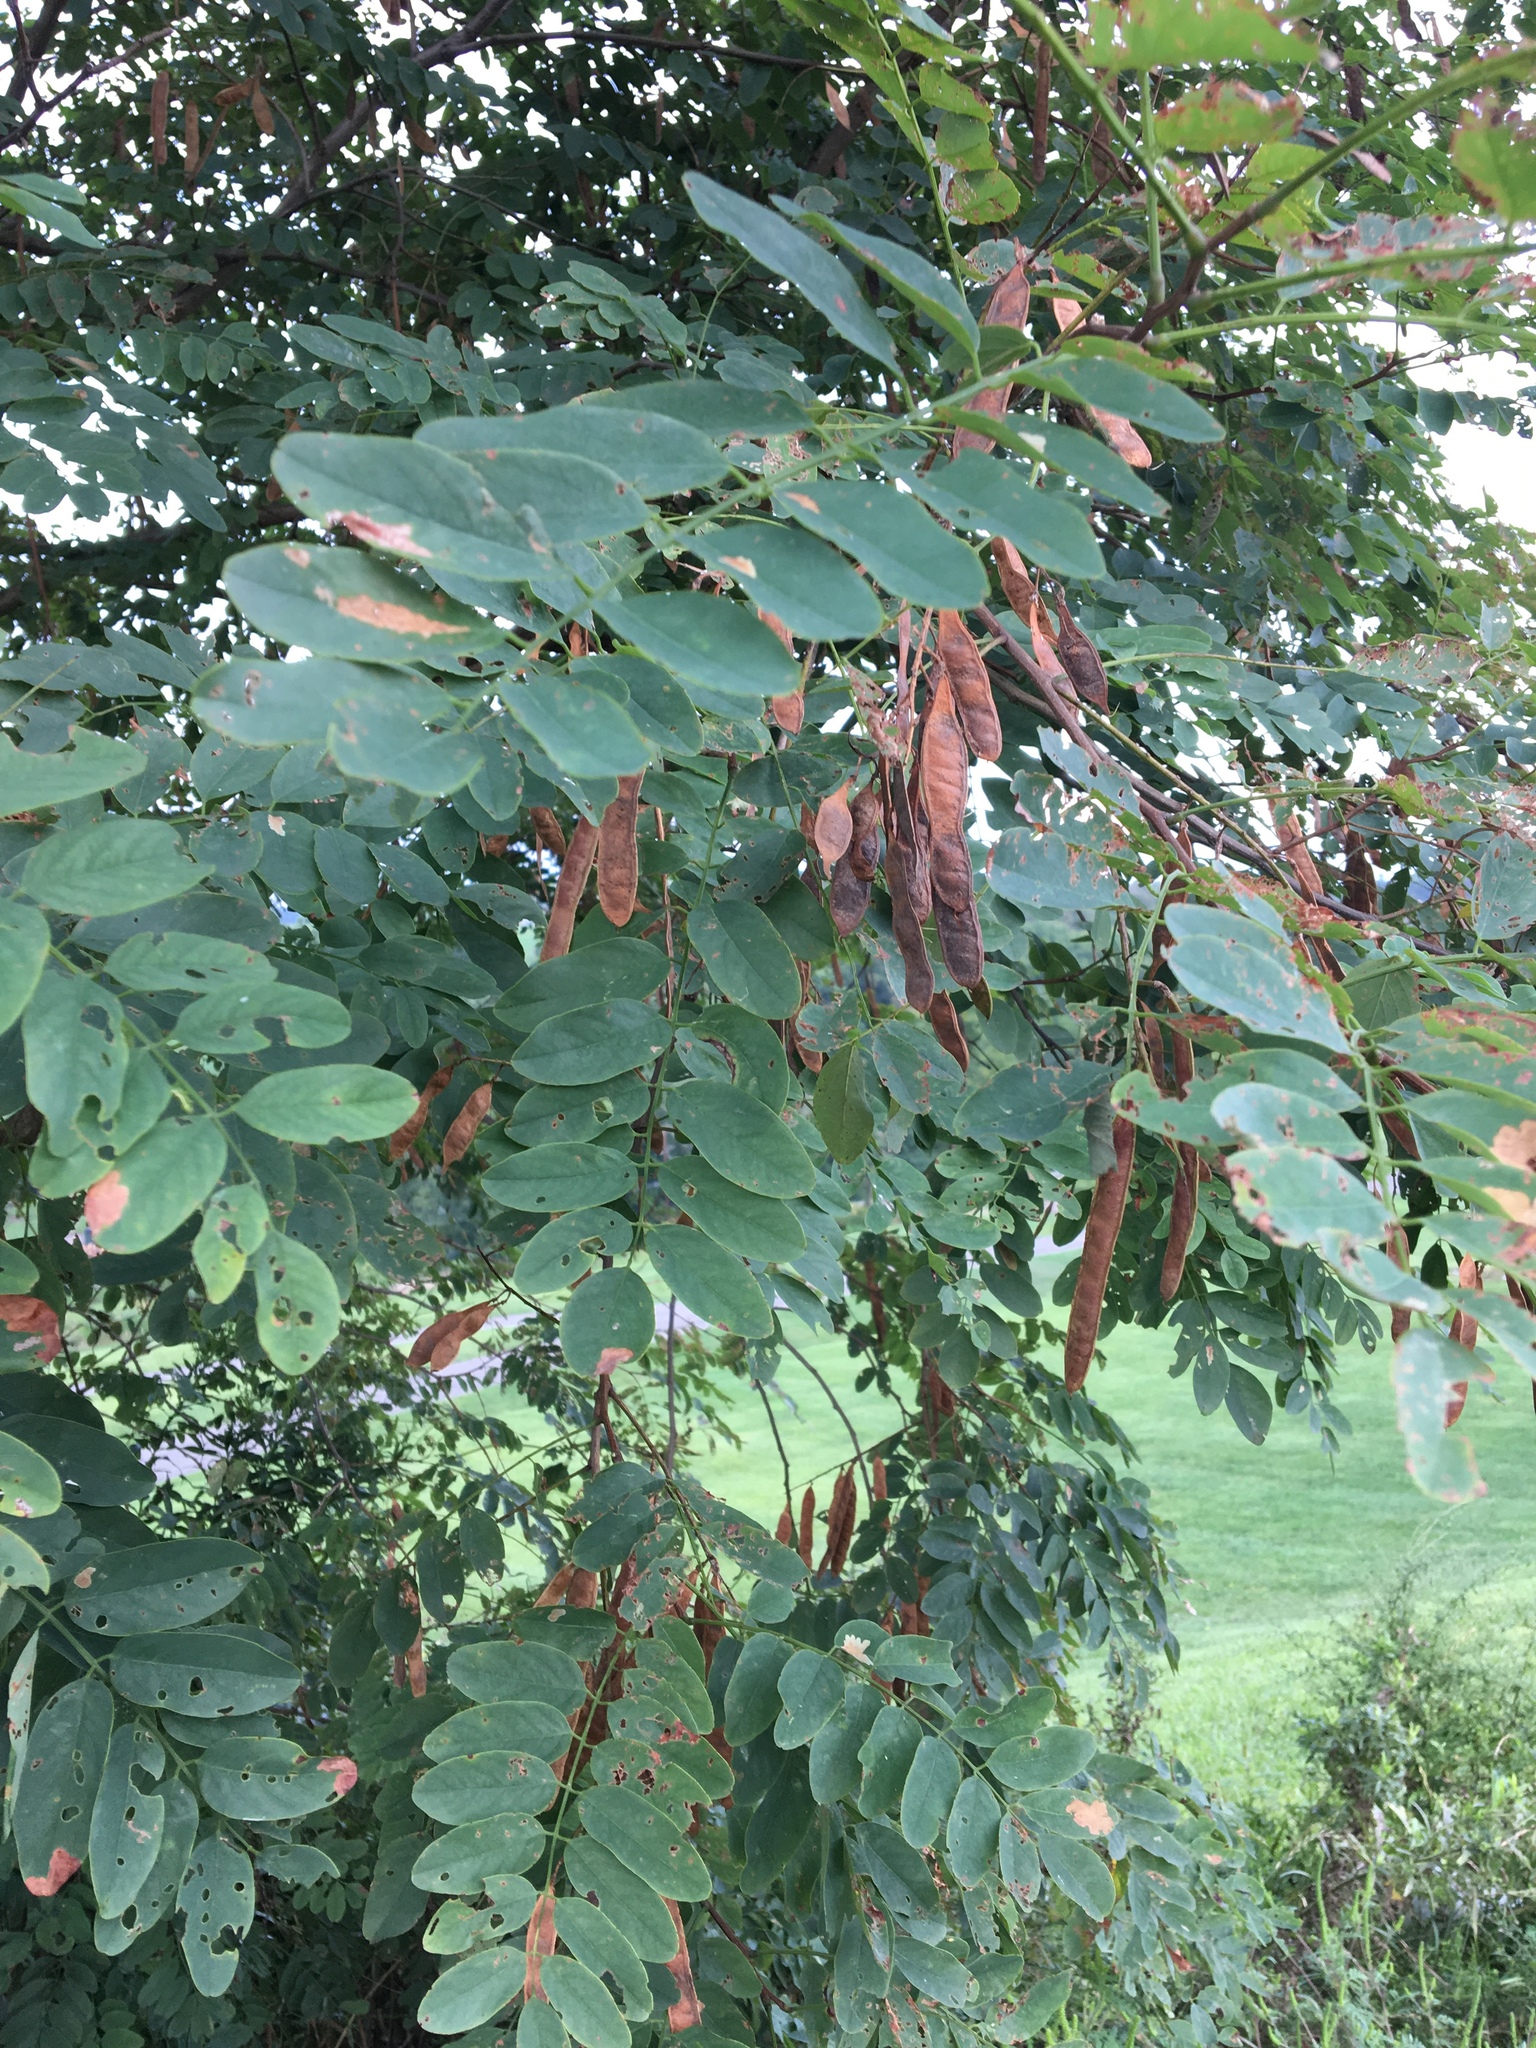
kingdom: Plantae
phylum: Tracheophyta
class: Magnoliopsida
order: Fabales
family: Fabaceae
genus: Robinia
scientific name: Robinia pseudoacacia
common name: Black locust
